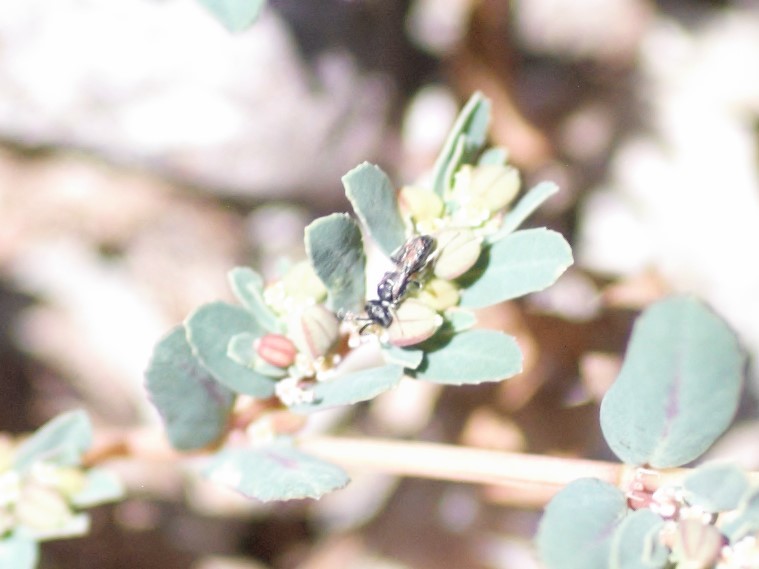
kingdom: Animalia
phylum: Arthropoda
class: Insecta
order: Hymenoptera
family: Crabronidae
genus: Solierella
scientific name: Solierella
